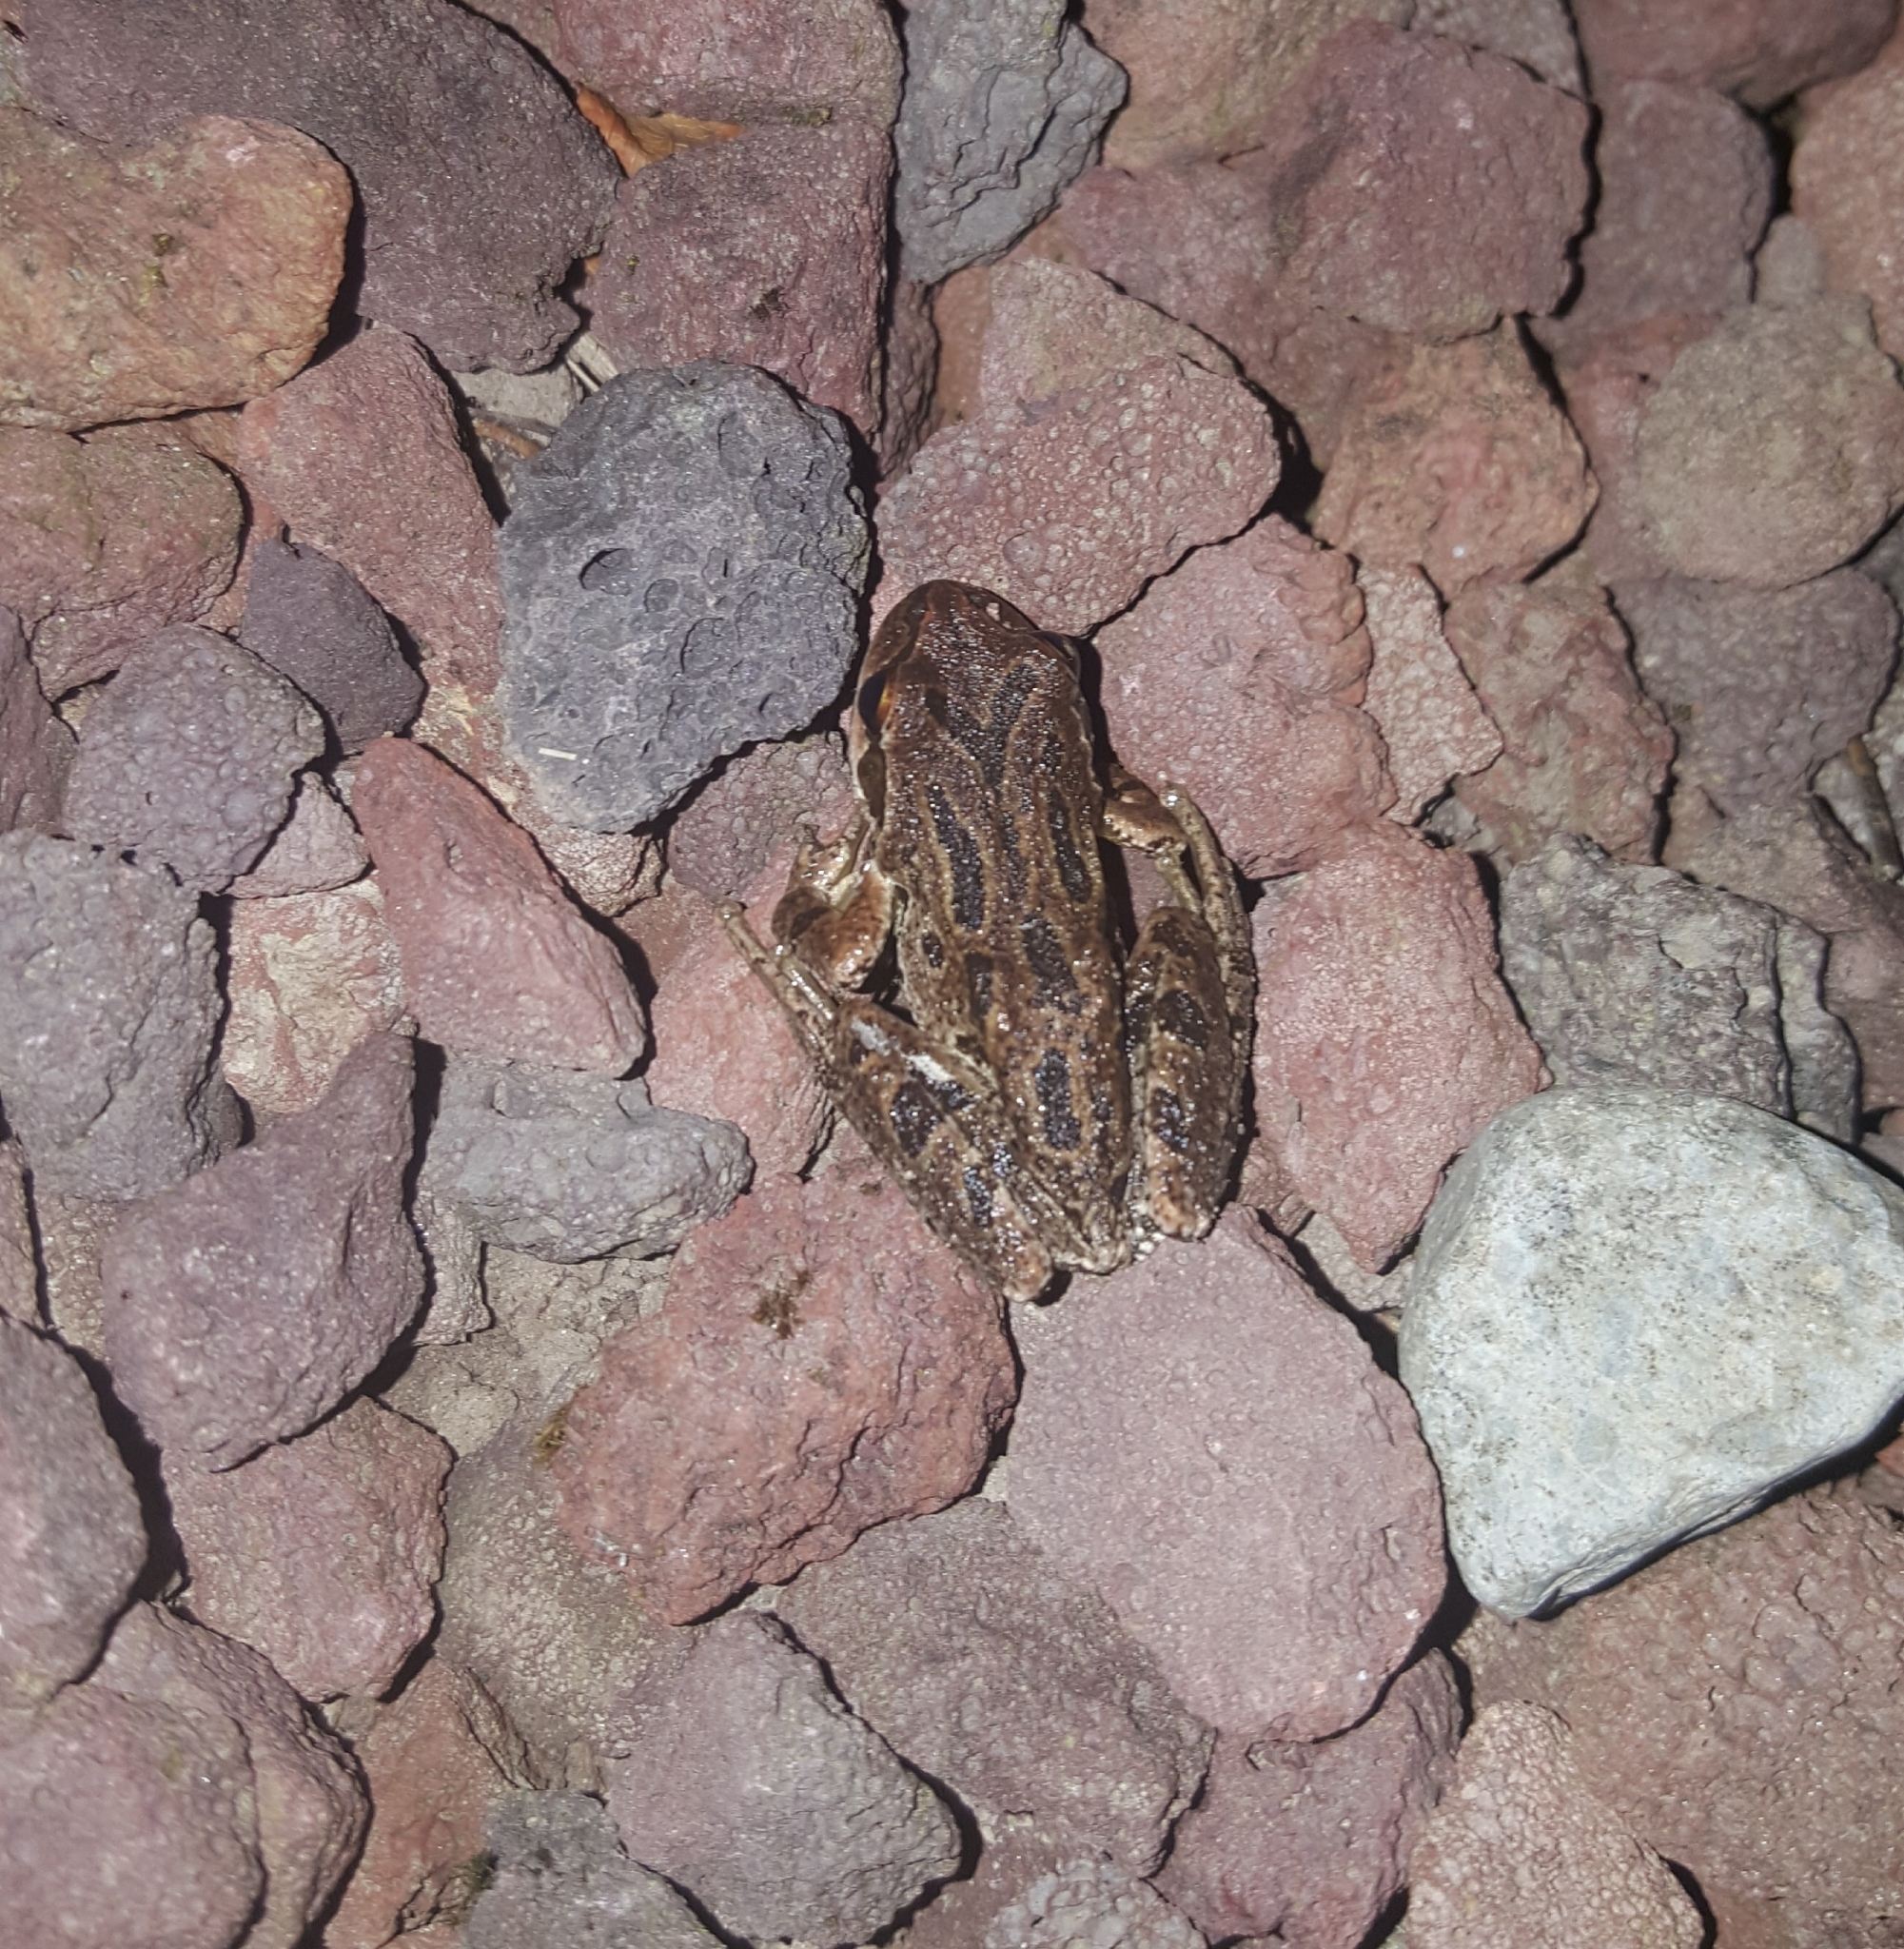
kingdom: Animalia
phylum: Chordata
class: Amphibia
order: Anura
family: Hylidae
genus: Pseudacris
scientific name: Pseudacris regilla
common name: Pacific chorus frog
